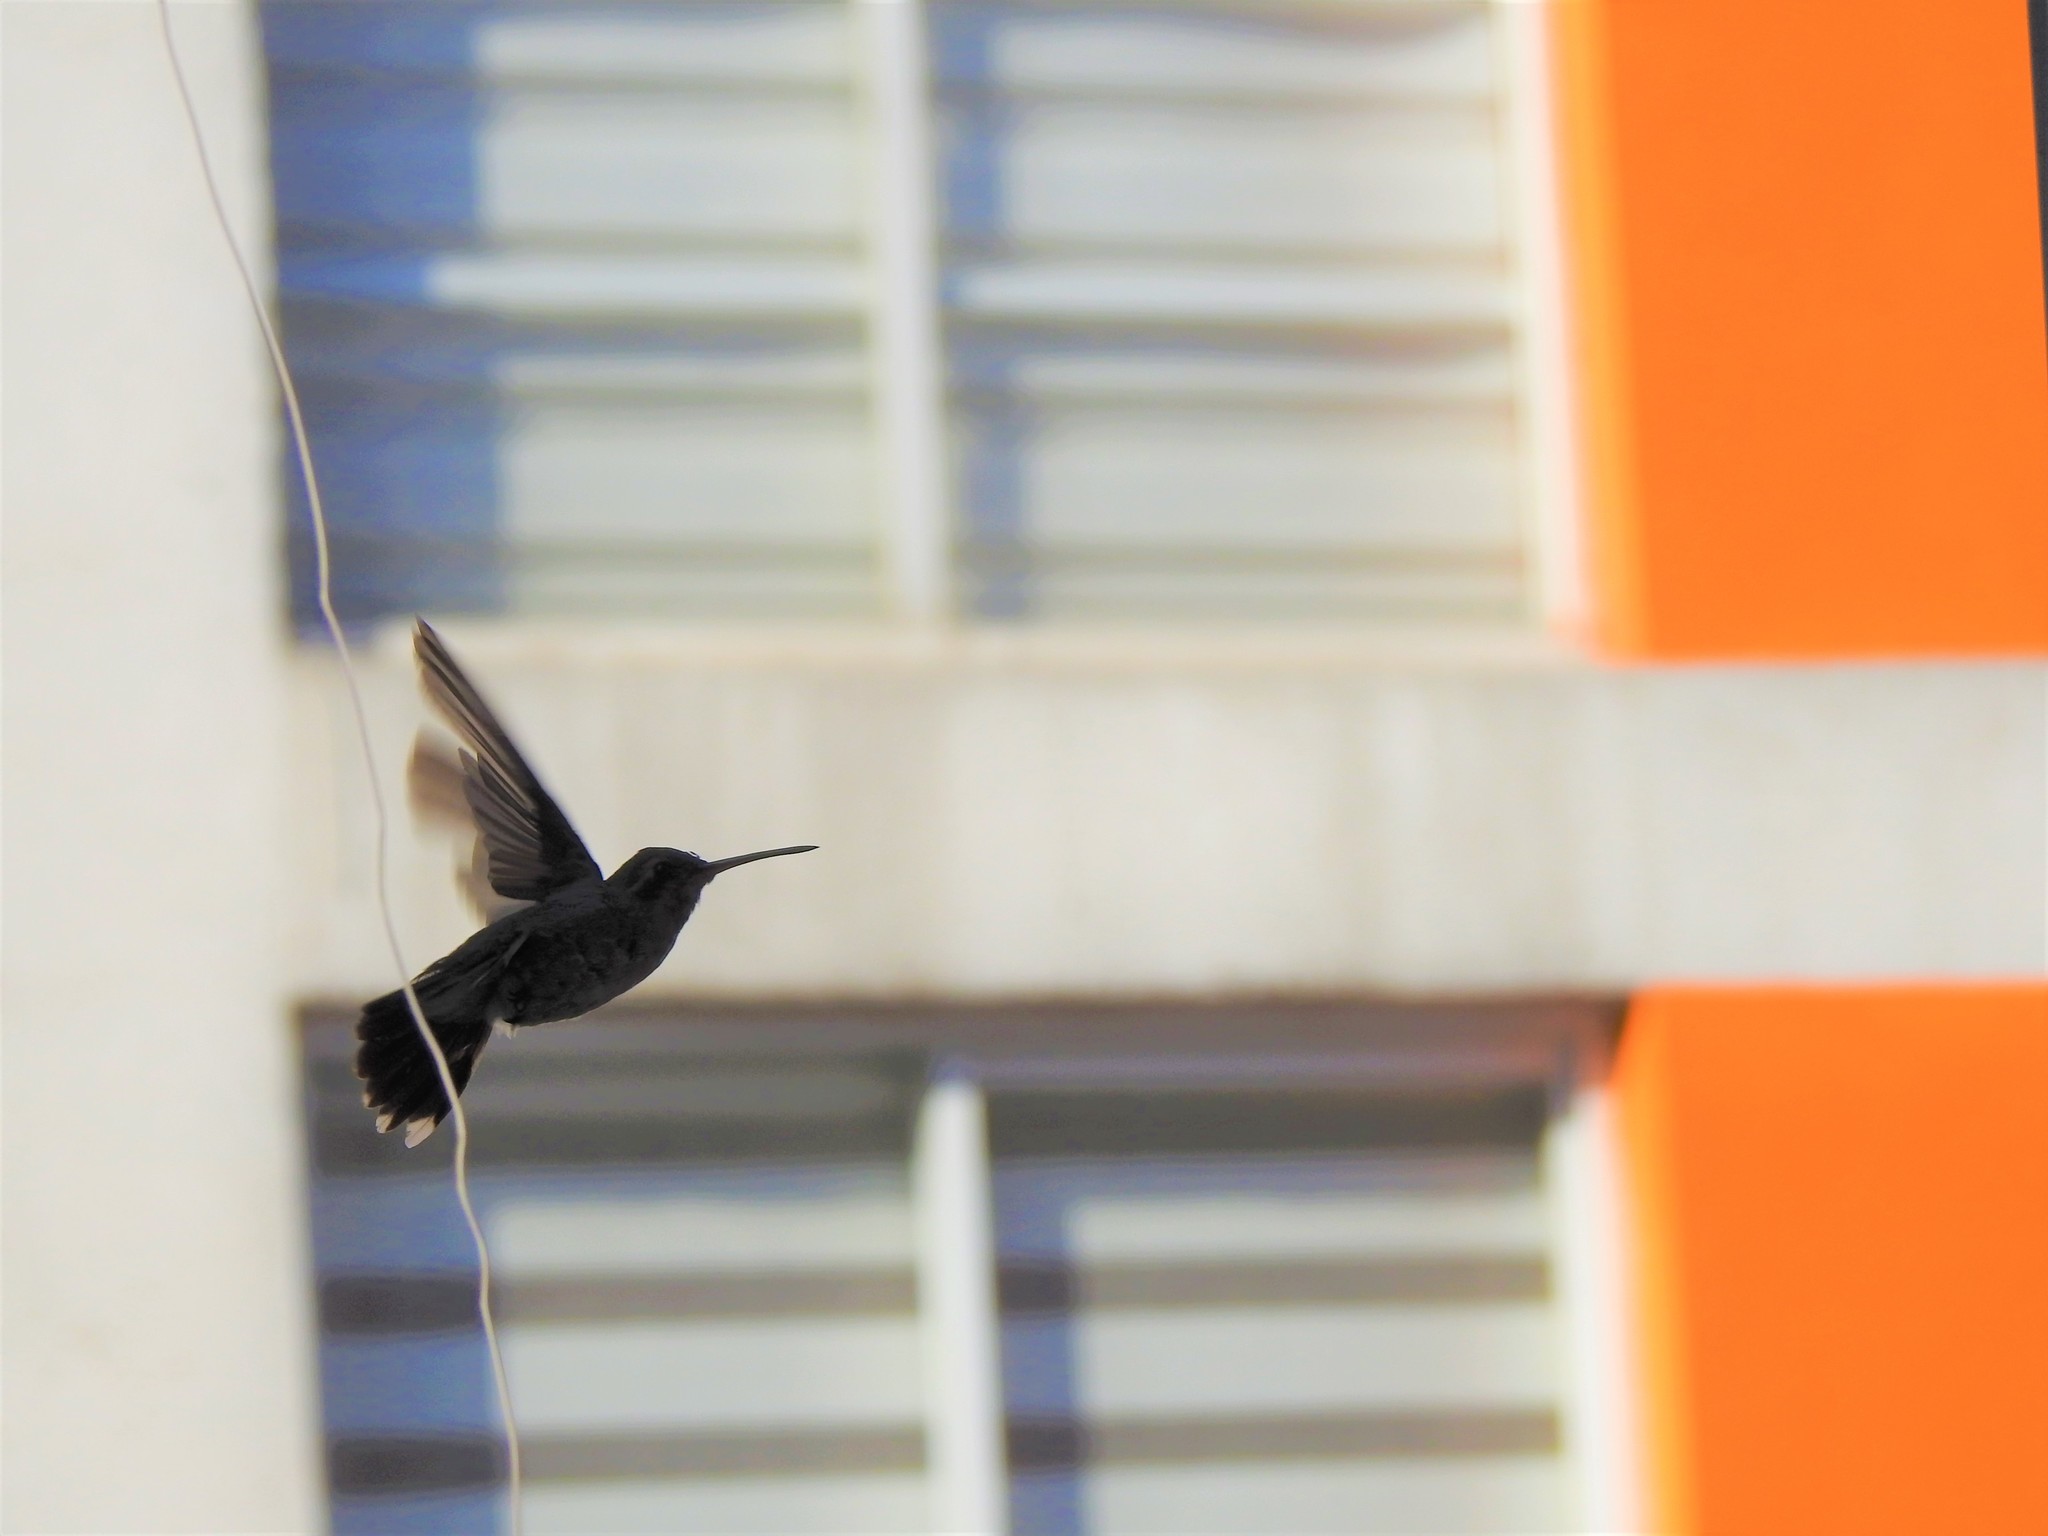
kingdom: Animalia
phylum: Chordata
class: Aves
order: Apodiformes
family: Trochilidae
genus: Cynanthus
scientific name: Cynanthus latirostris
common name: Broad-billed hummingbird
